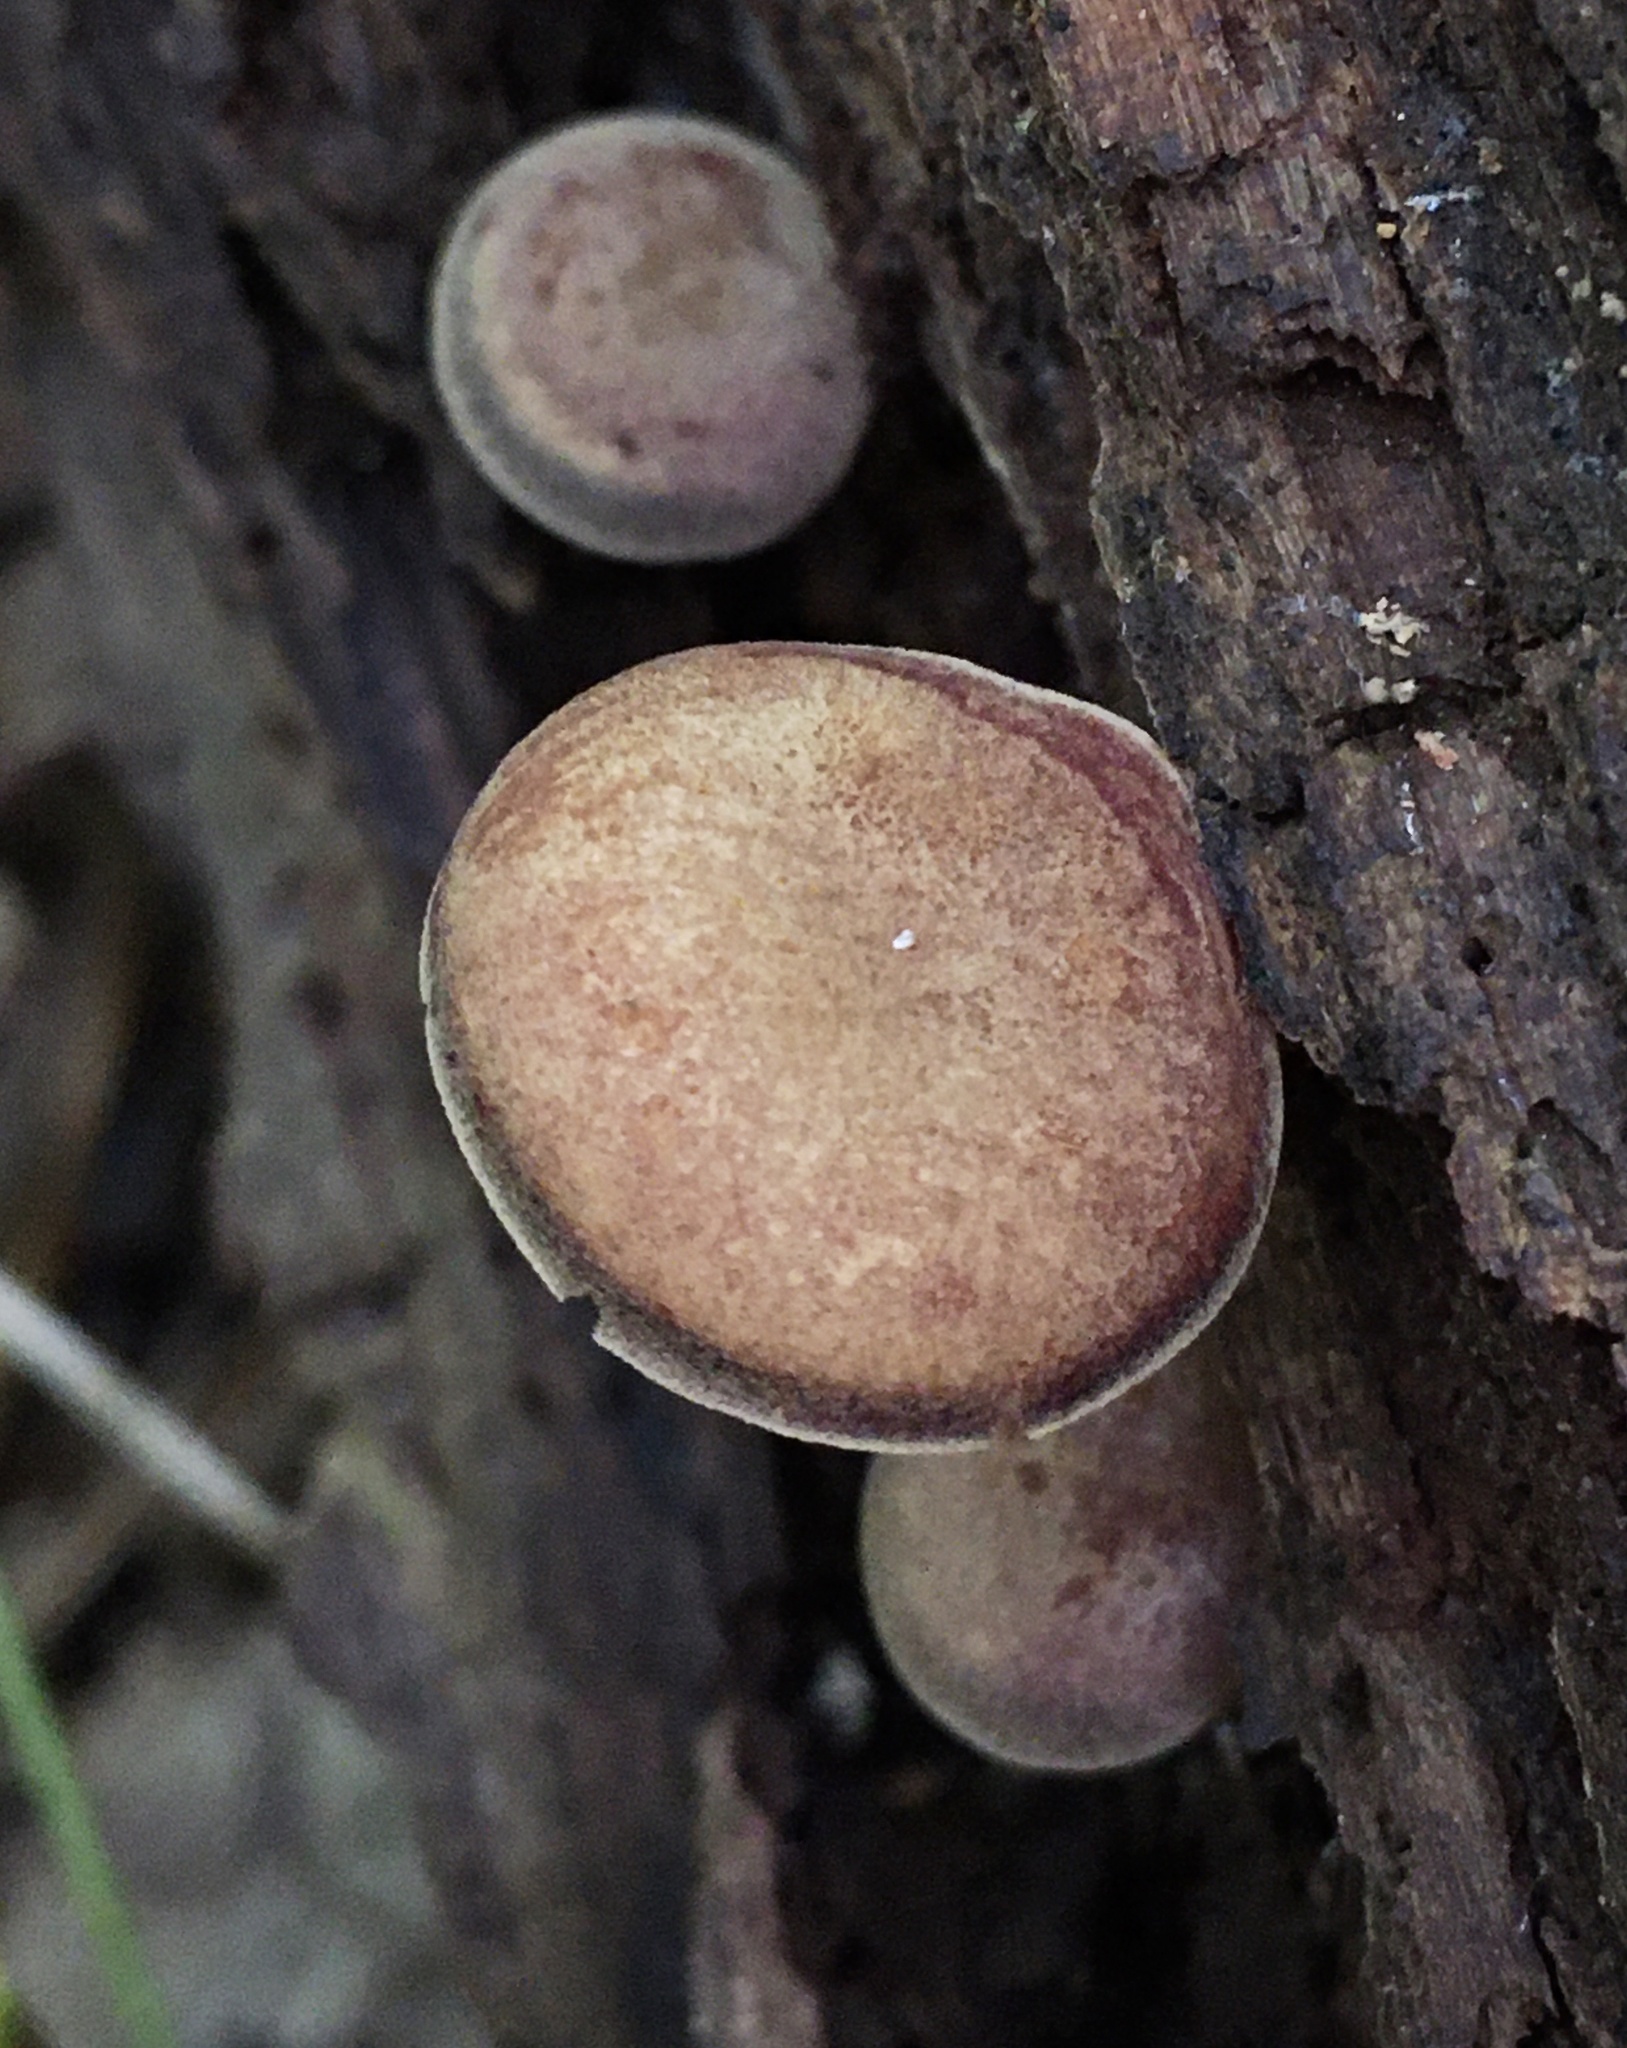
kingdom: Fungi
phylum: Basidiomycota
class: Agaricomycetes
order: Agaricales
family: Callistosporiaceae
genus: Callistosporium
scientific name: Callistosporium purpureomarginatum
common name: Purple-edged lute
